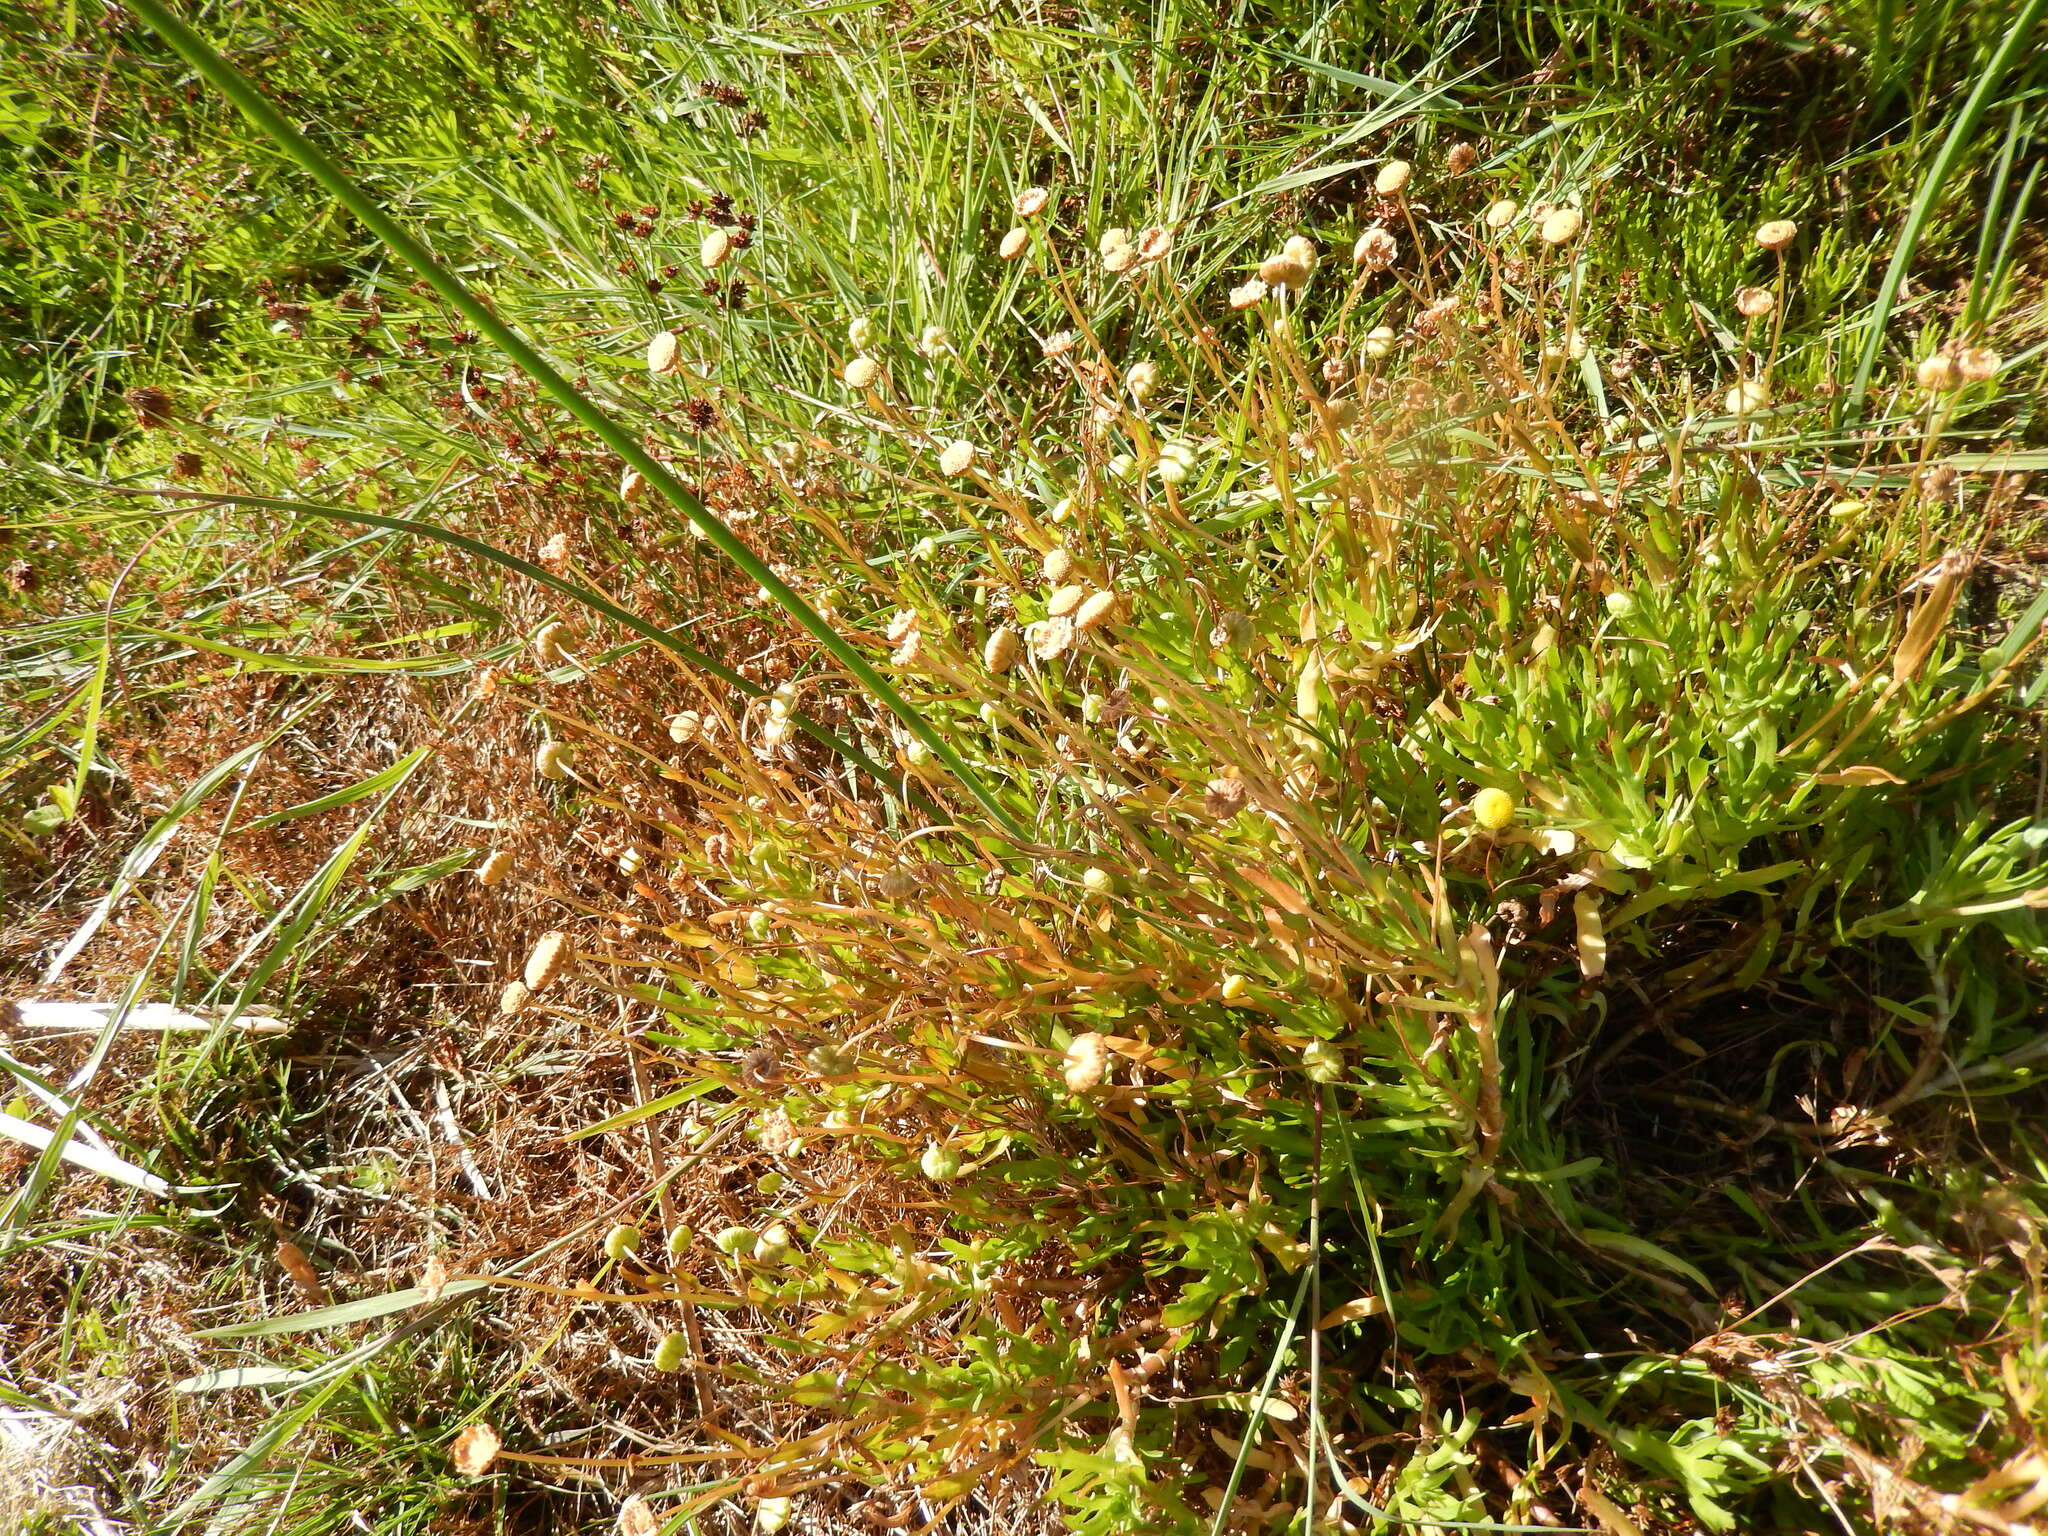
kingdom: Plantae
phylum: Tracheophyta
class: Magnoliopsida
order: Asterales
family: Asteraceae
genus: Cotula
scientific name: Cotula coronopifolia
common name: Buttonweed
